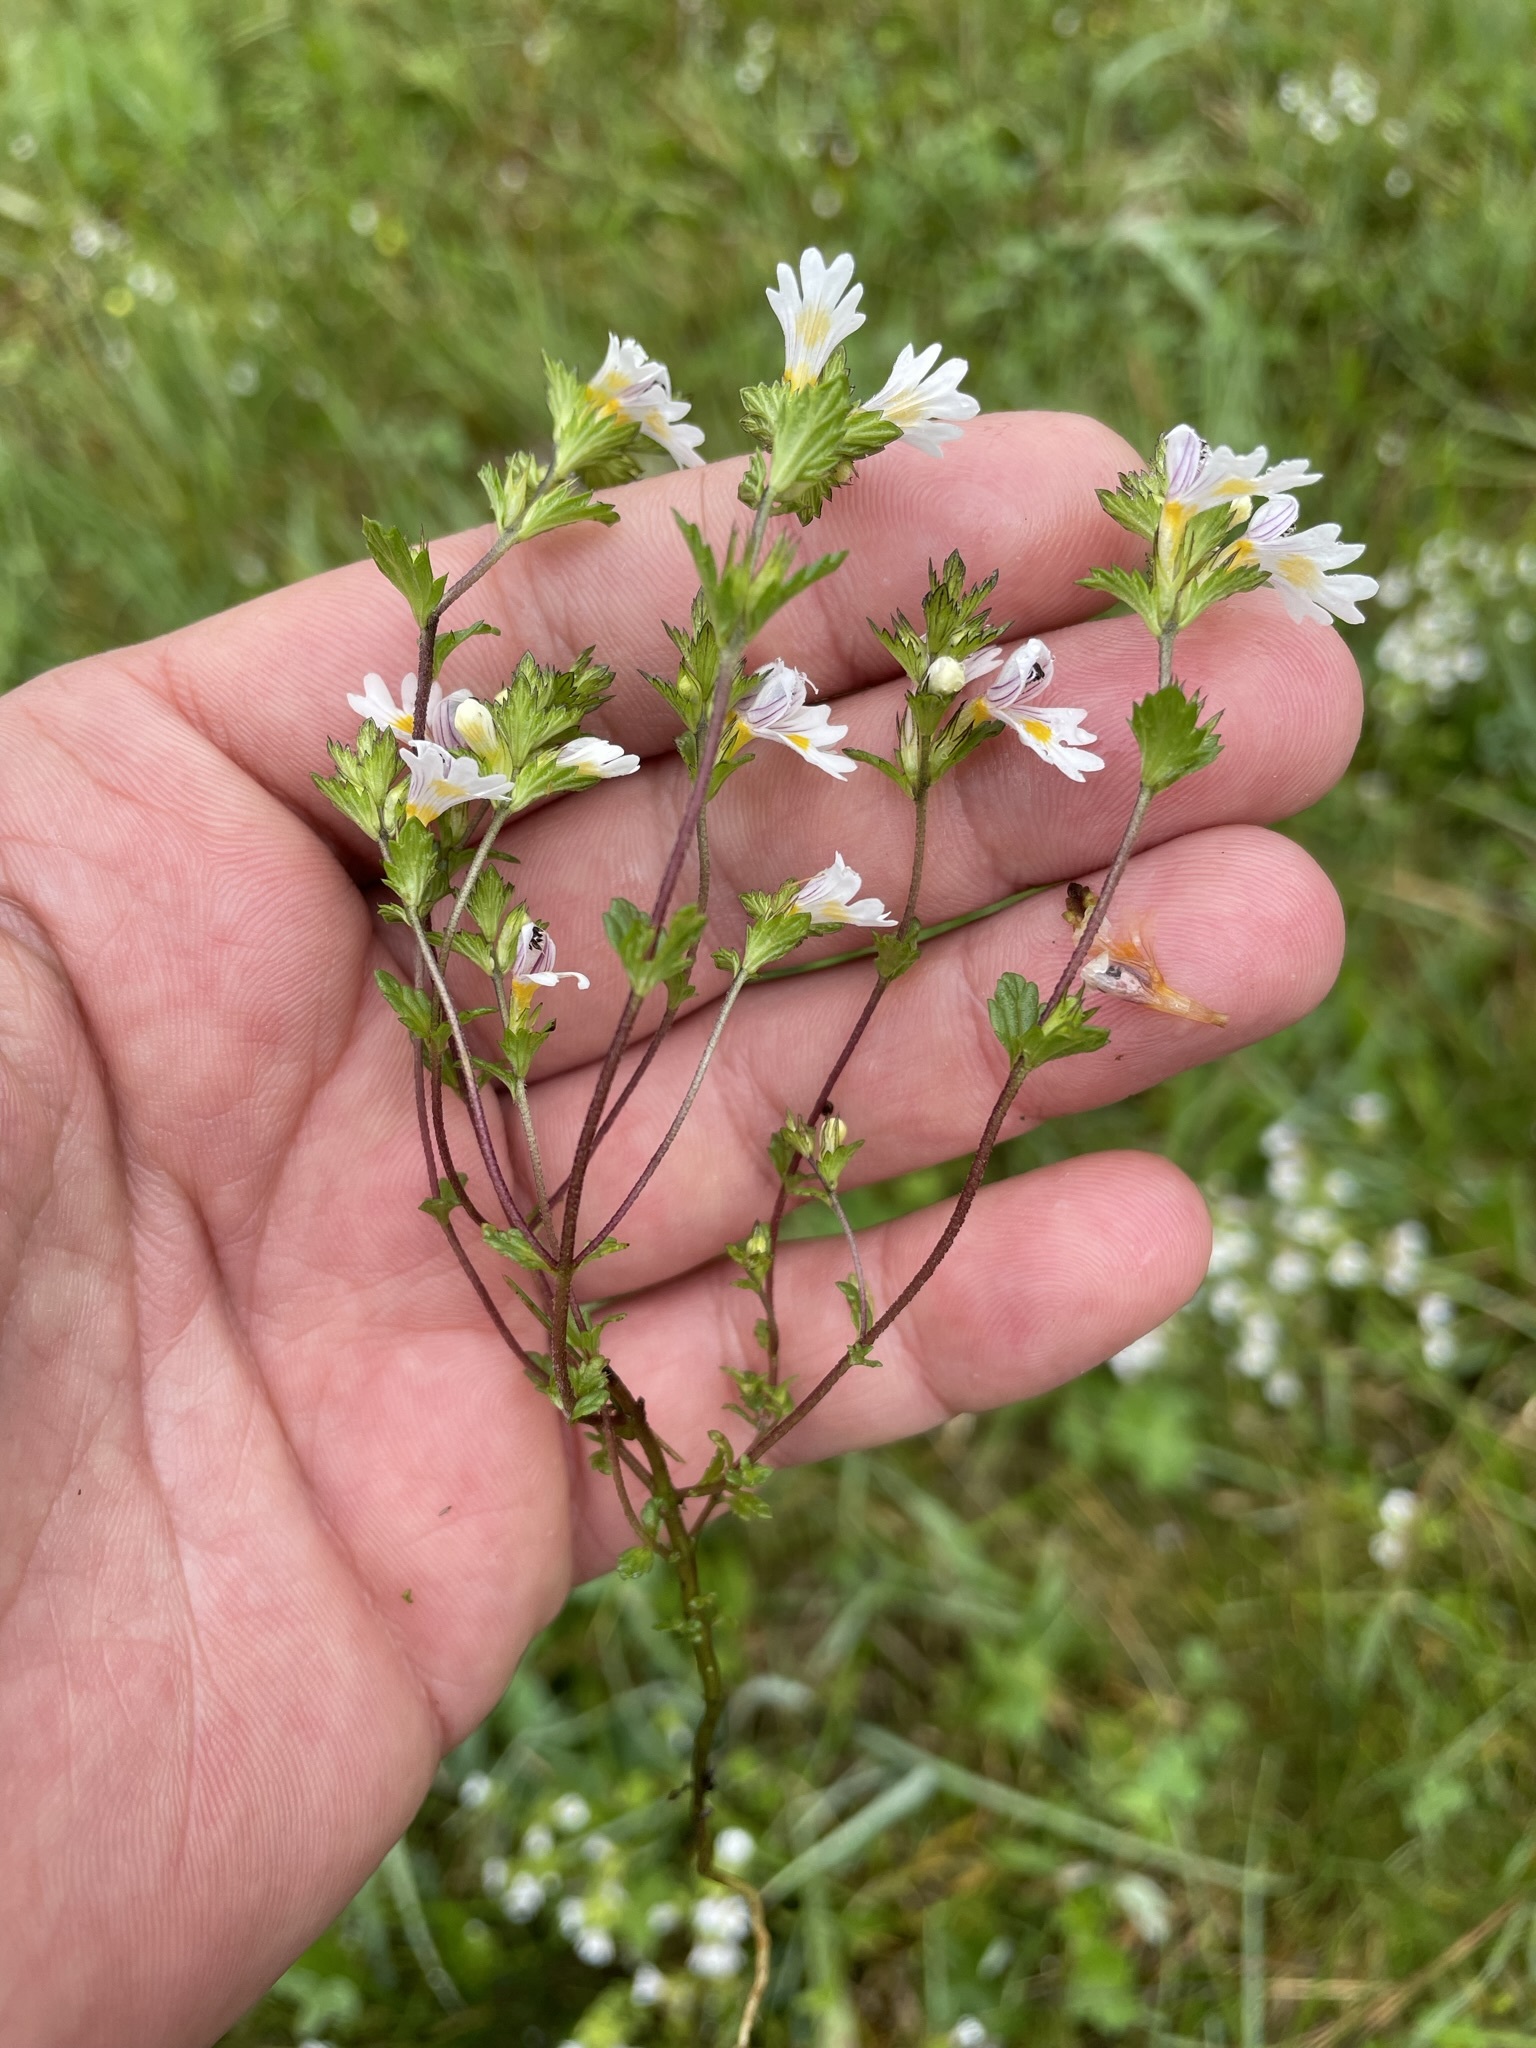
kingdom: Plantae
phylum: Tracheophyta
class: Magnoliopsida
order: Lamiales
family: Orobanchaceae
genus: Euphrasia
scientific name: Euphrasia officinalis
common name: Eyebright
